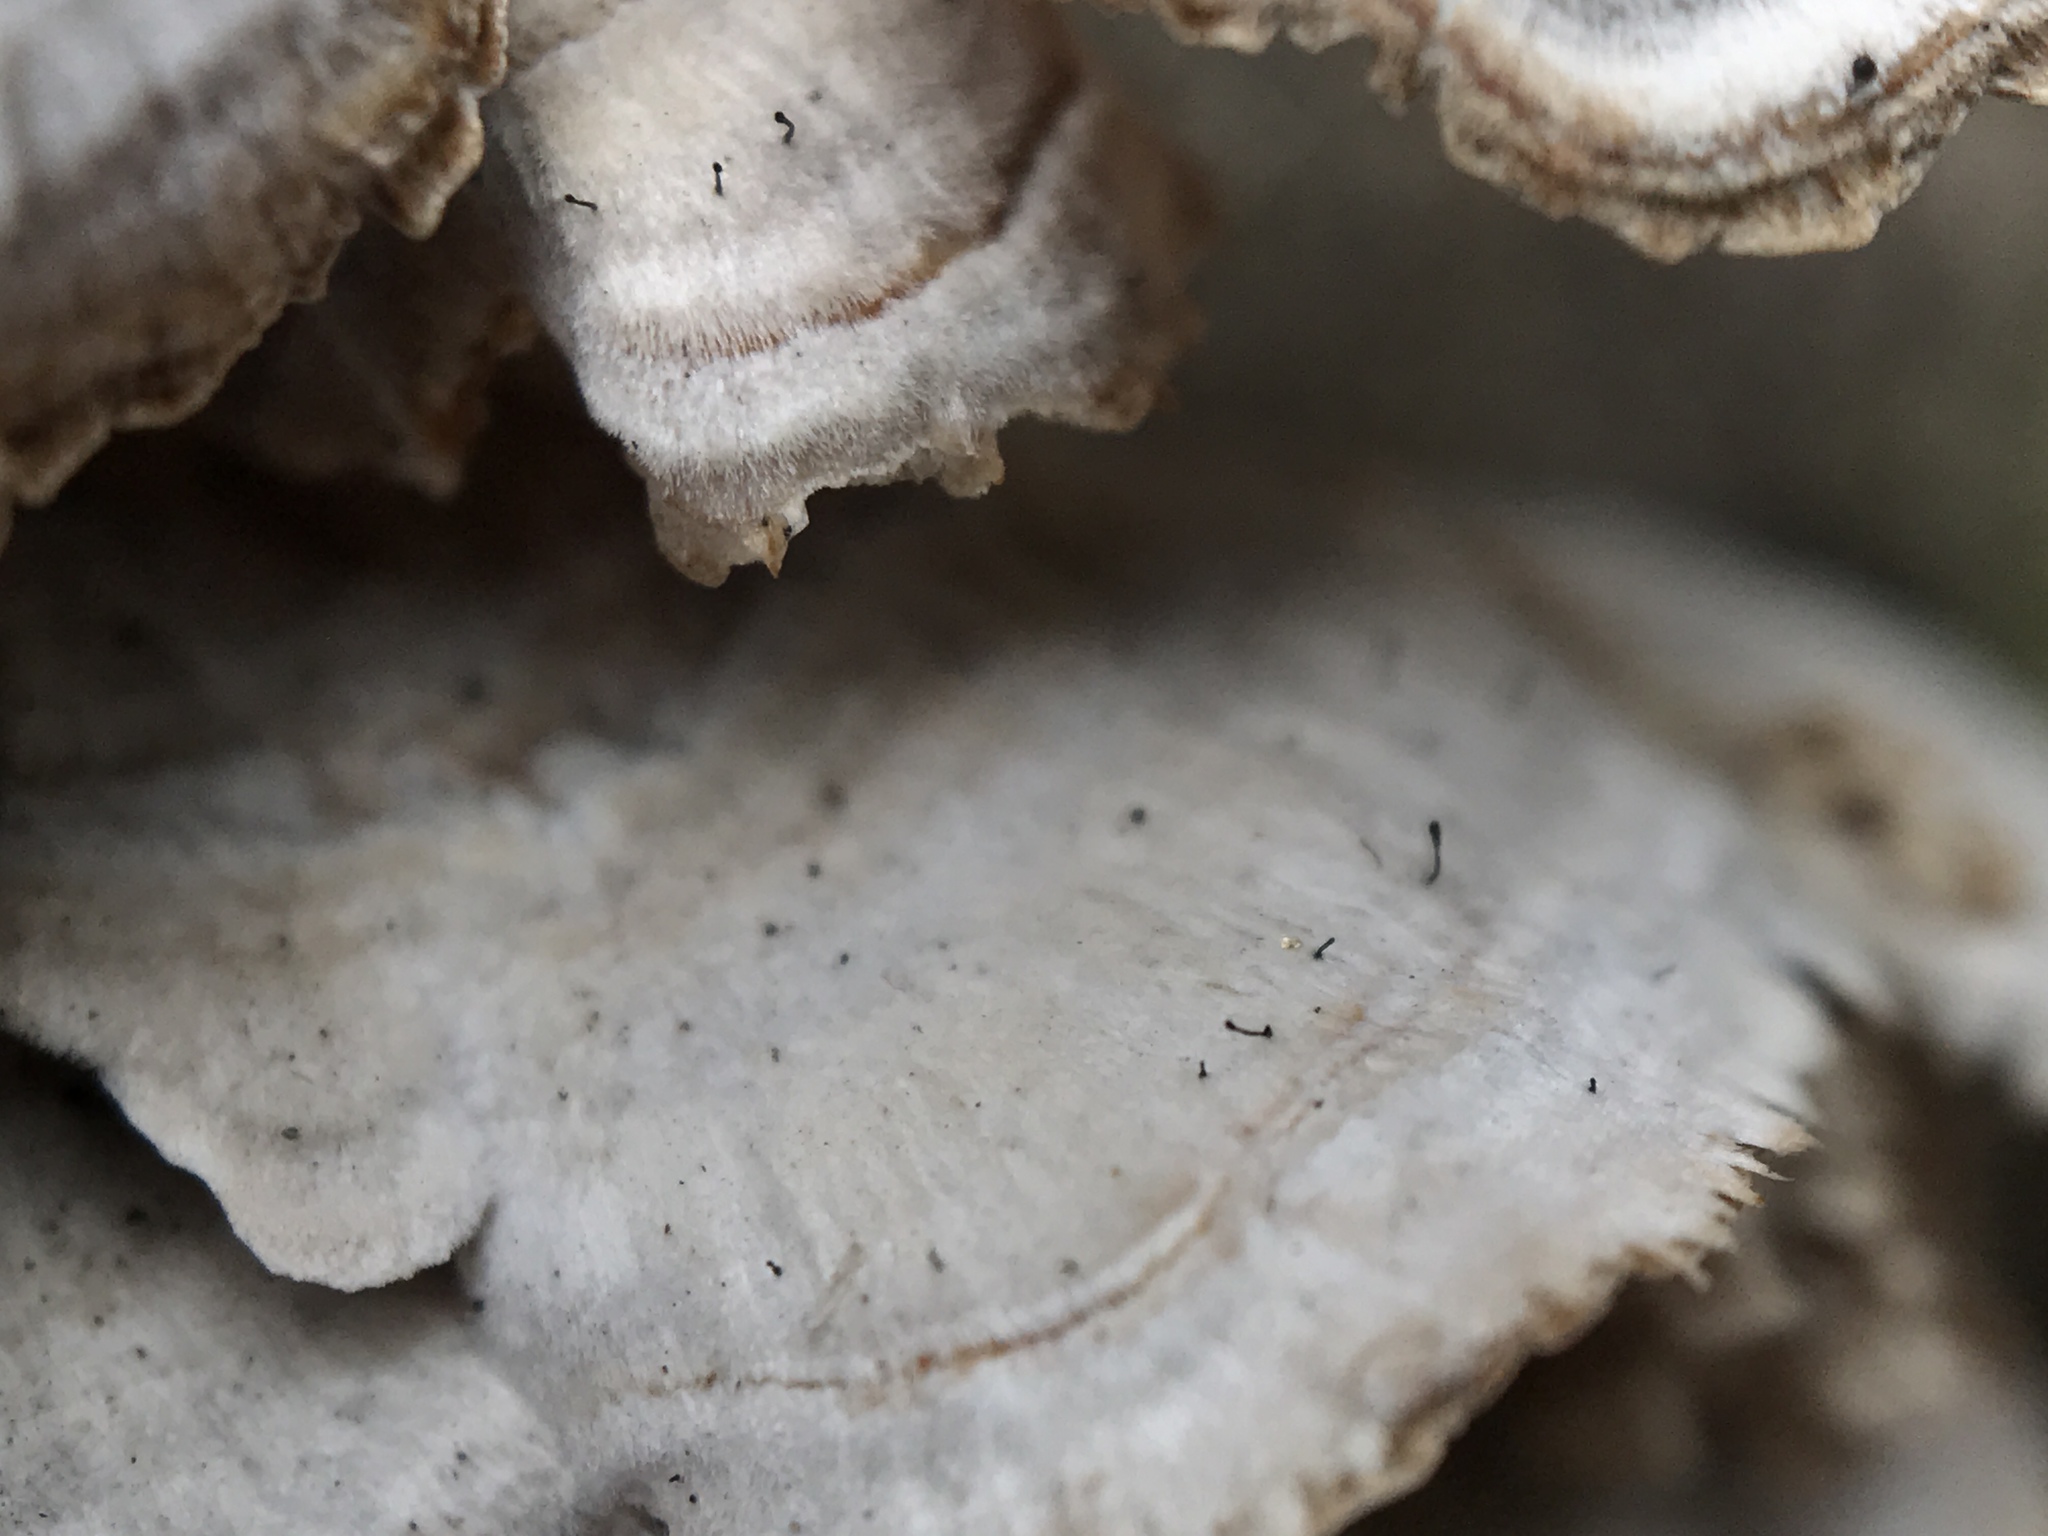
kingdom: Fungi
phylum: Ascomycota
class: Eurotiomycetes
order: Mycocaliciales
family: Mycocaliciaceae
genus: Phaeocalicium
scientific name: Phaeocalicium polyporaeum
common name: Fairy pins
